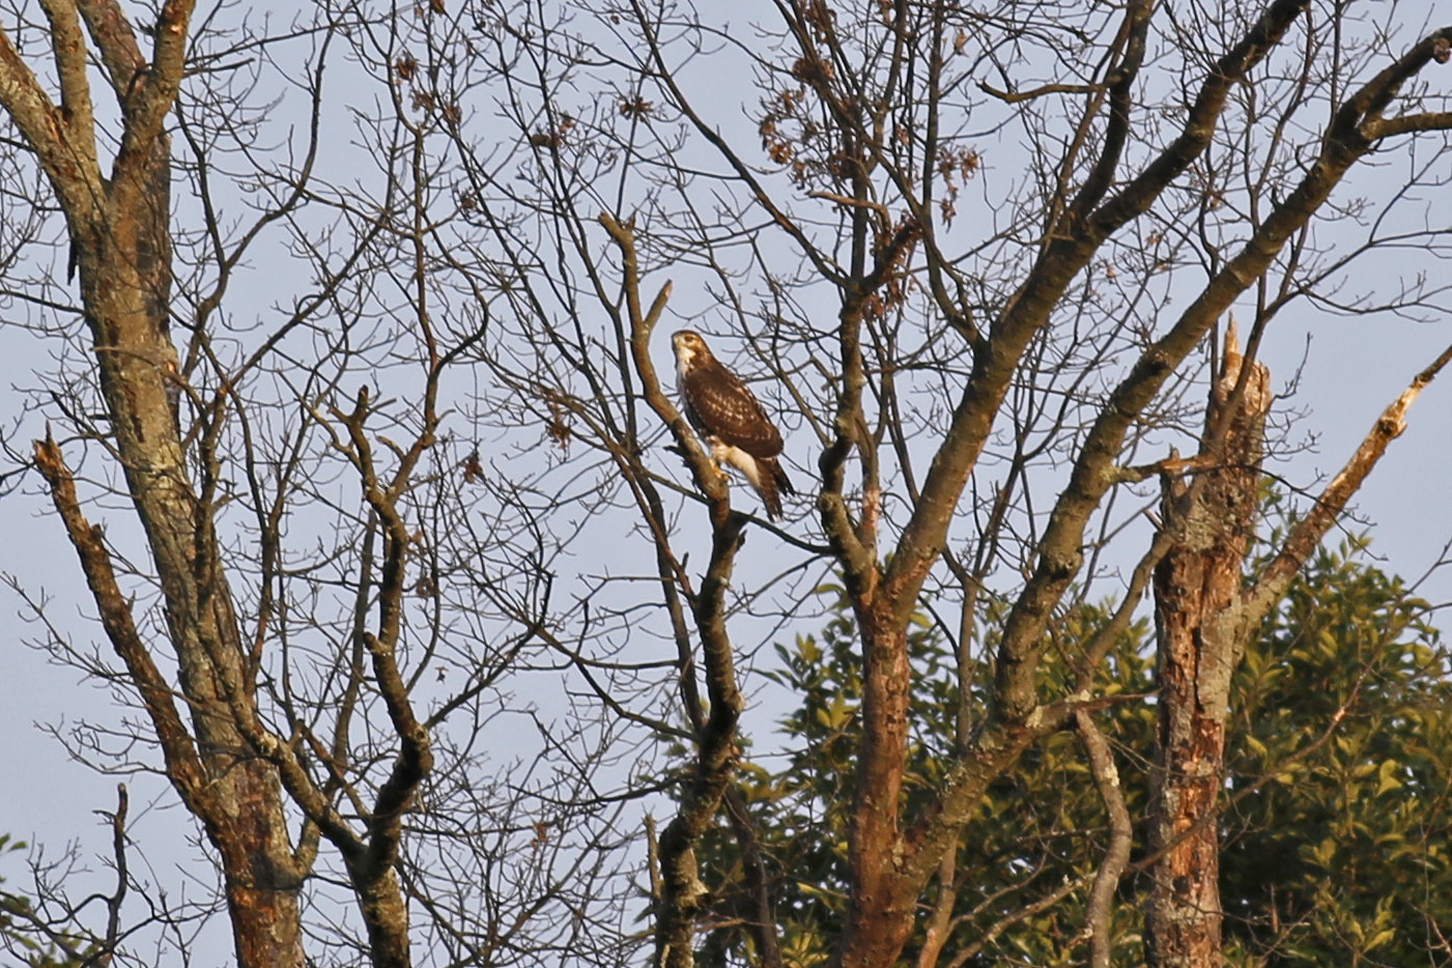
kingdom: Animalia
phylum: Chordata
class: Aves
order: Accipitriformes
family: Accipitridae
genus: Buteo
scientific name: Buteo jamaicensis
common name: Red-tailed hawk
